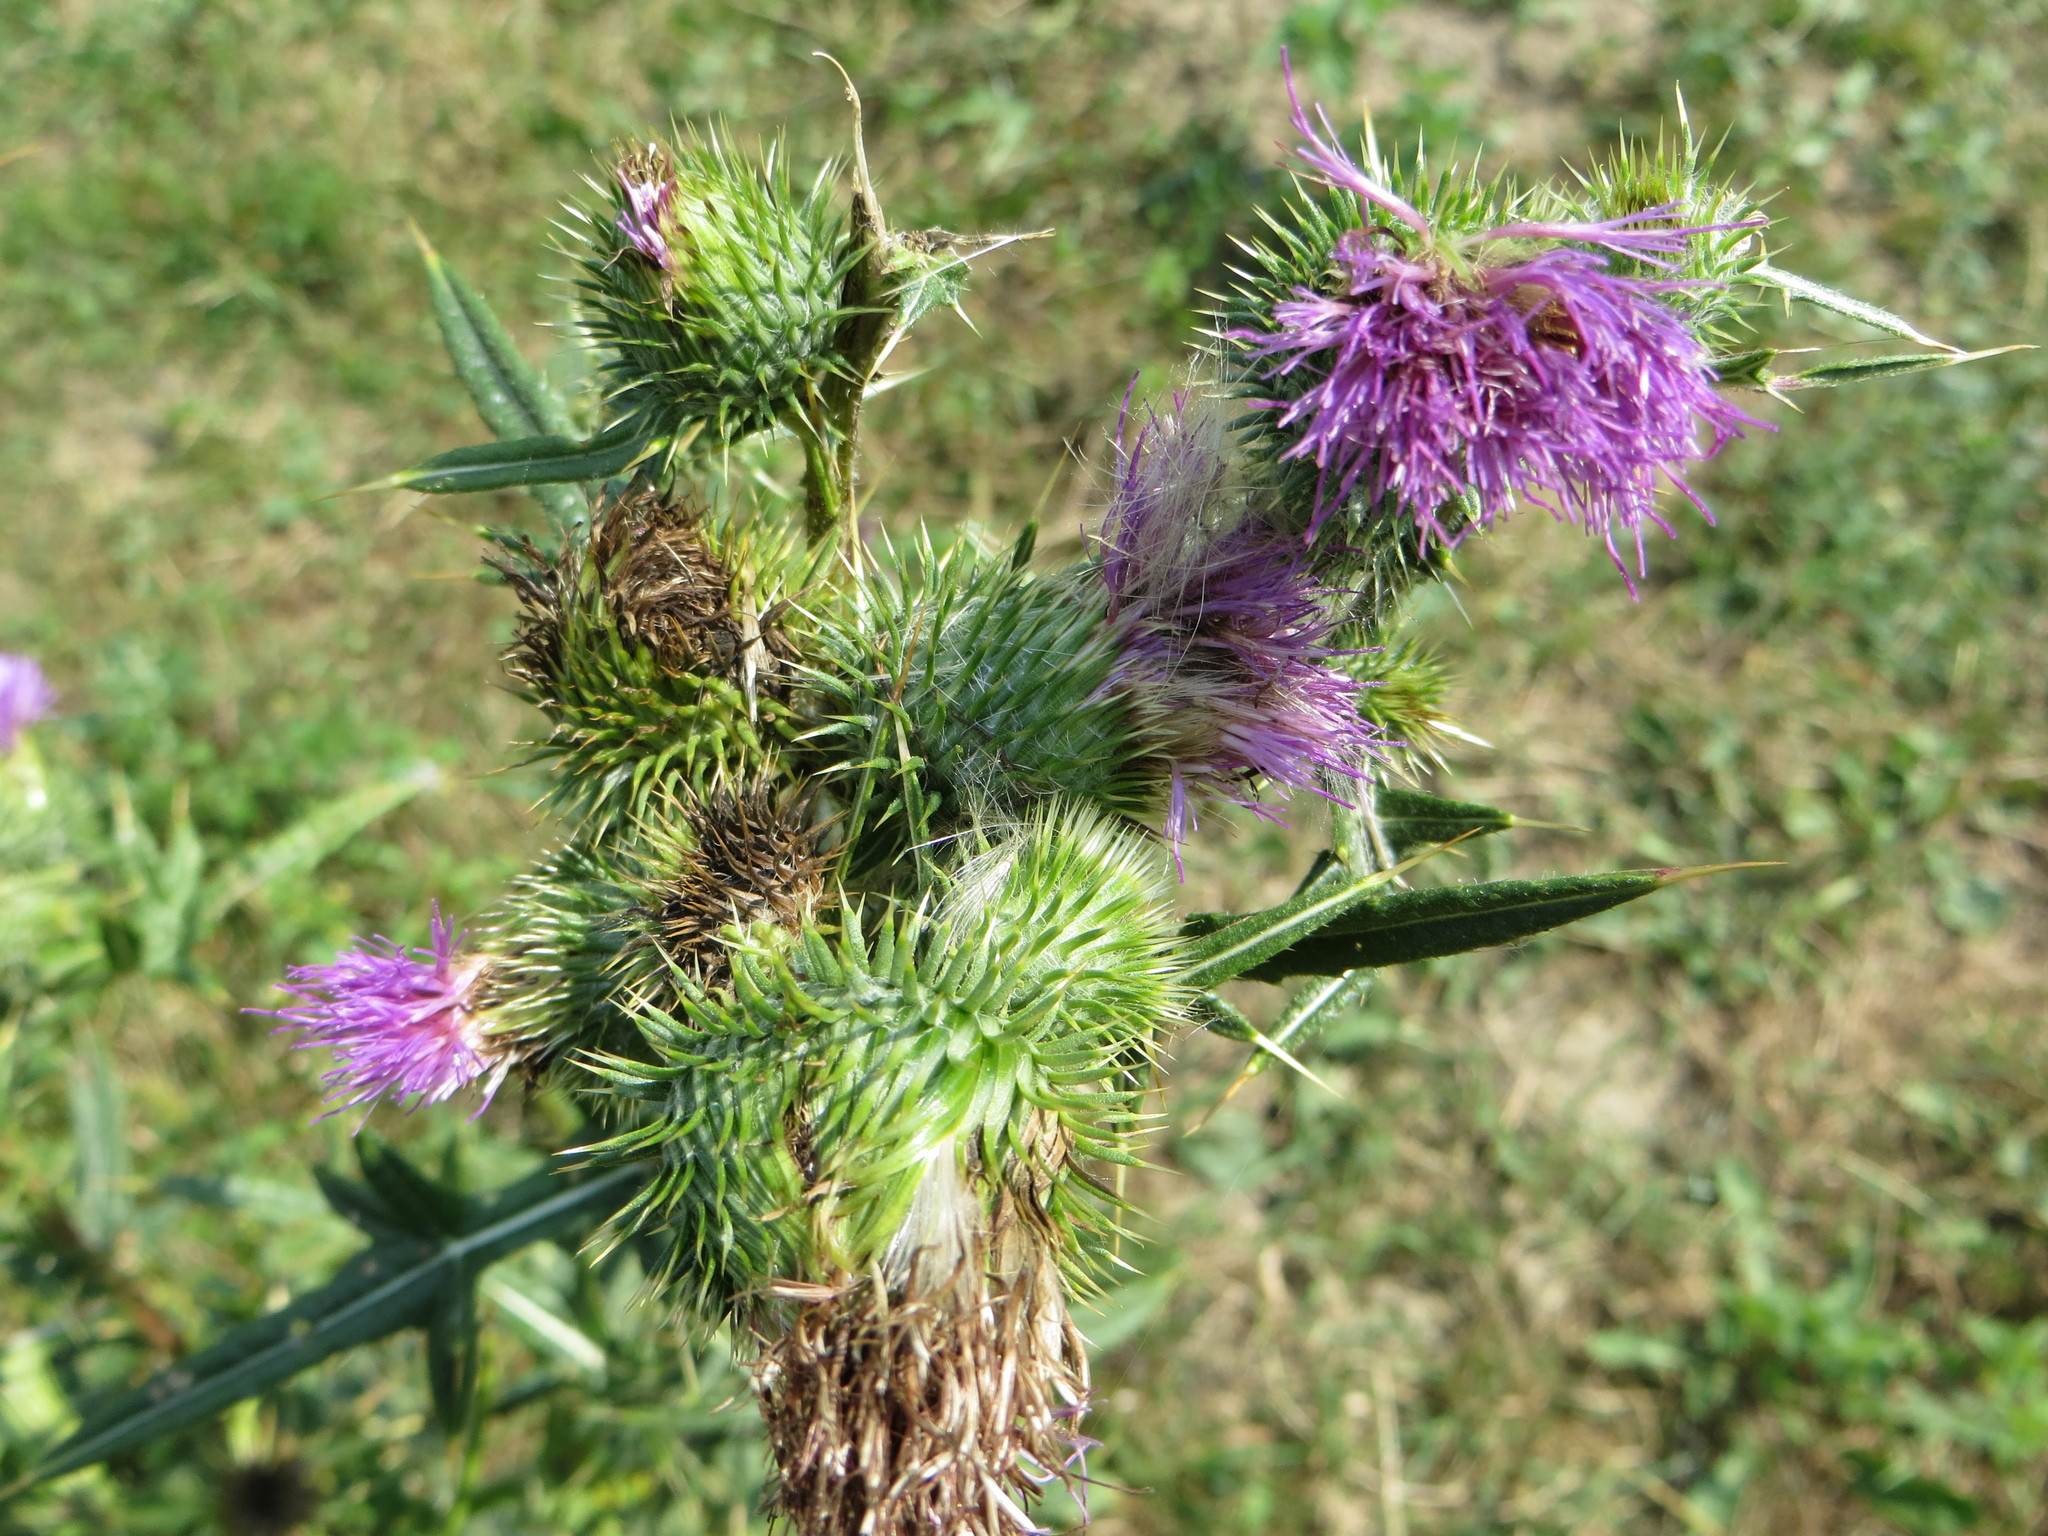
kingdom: Plantae
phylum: Tracheophyta
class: Magnoliopsida
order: Asterales
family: Asteraceae
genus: Cirsium
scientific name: Cirsium vulgare
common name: Bull thistle
